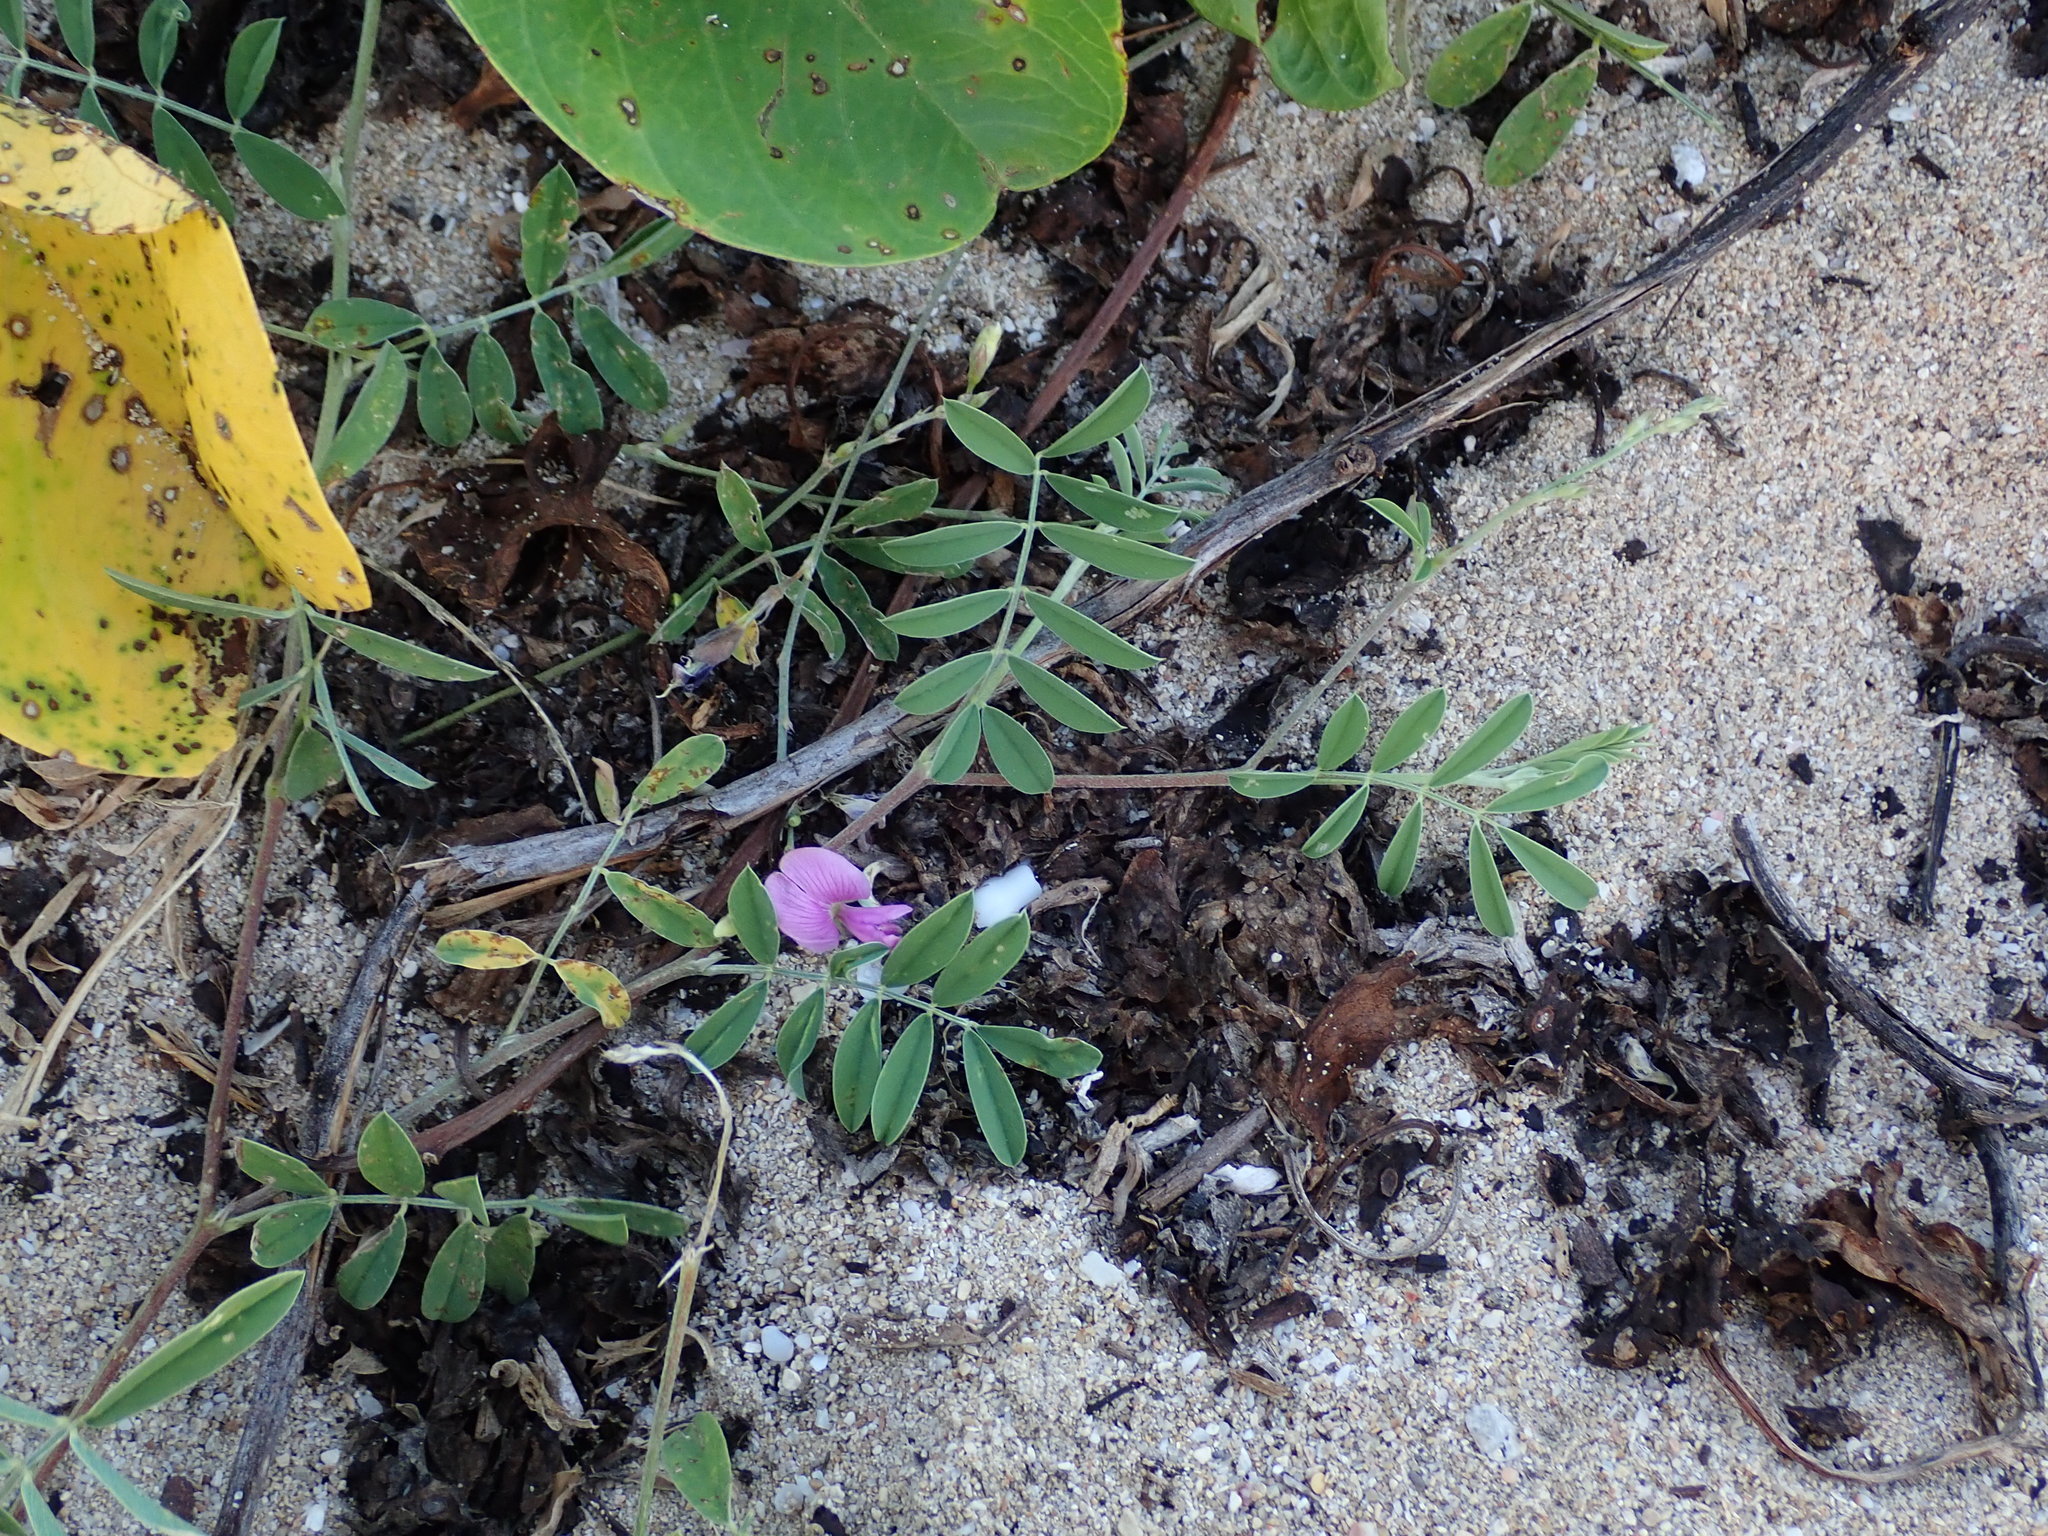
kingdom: Plantae
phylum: Tracheophyta
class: Magnoliopsida
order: Fabales
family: Fabaceae
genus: Tephrosia
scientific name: Tephrosia cinerea
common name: Ashen hoarypea
